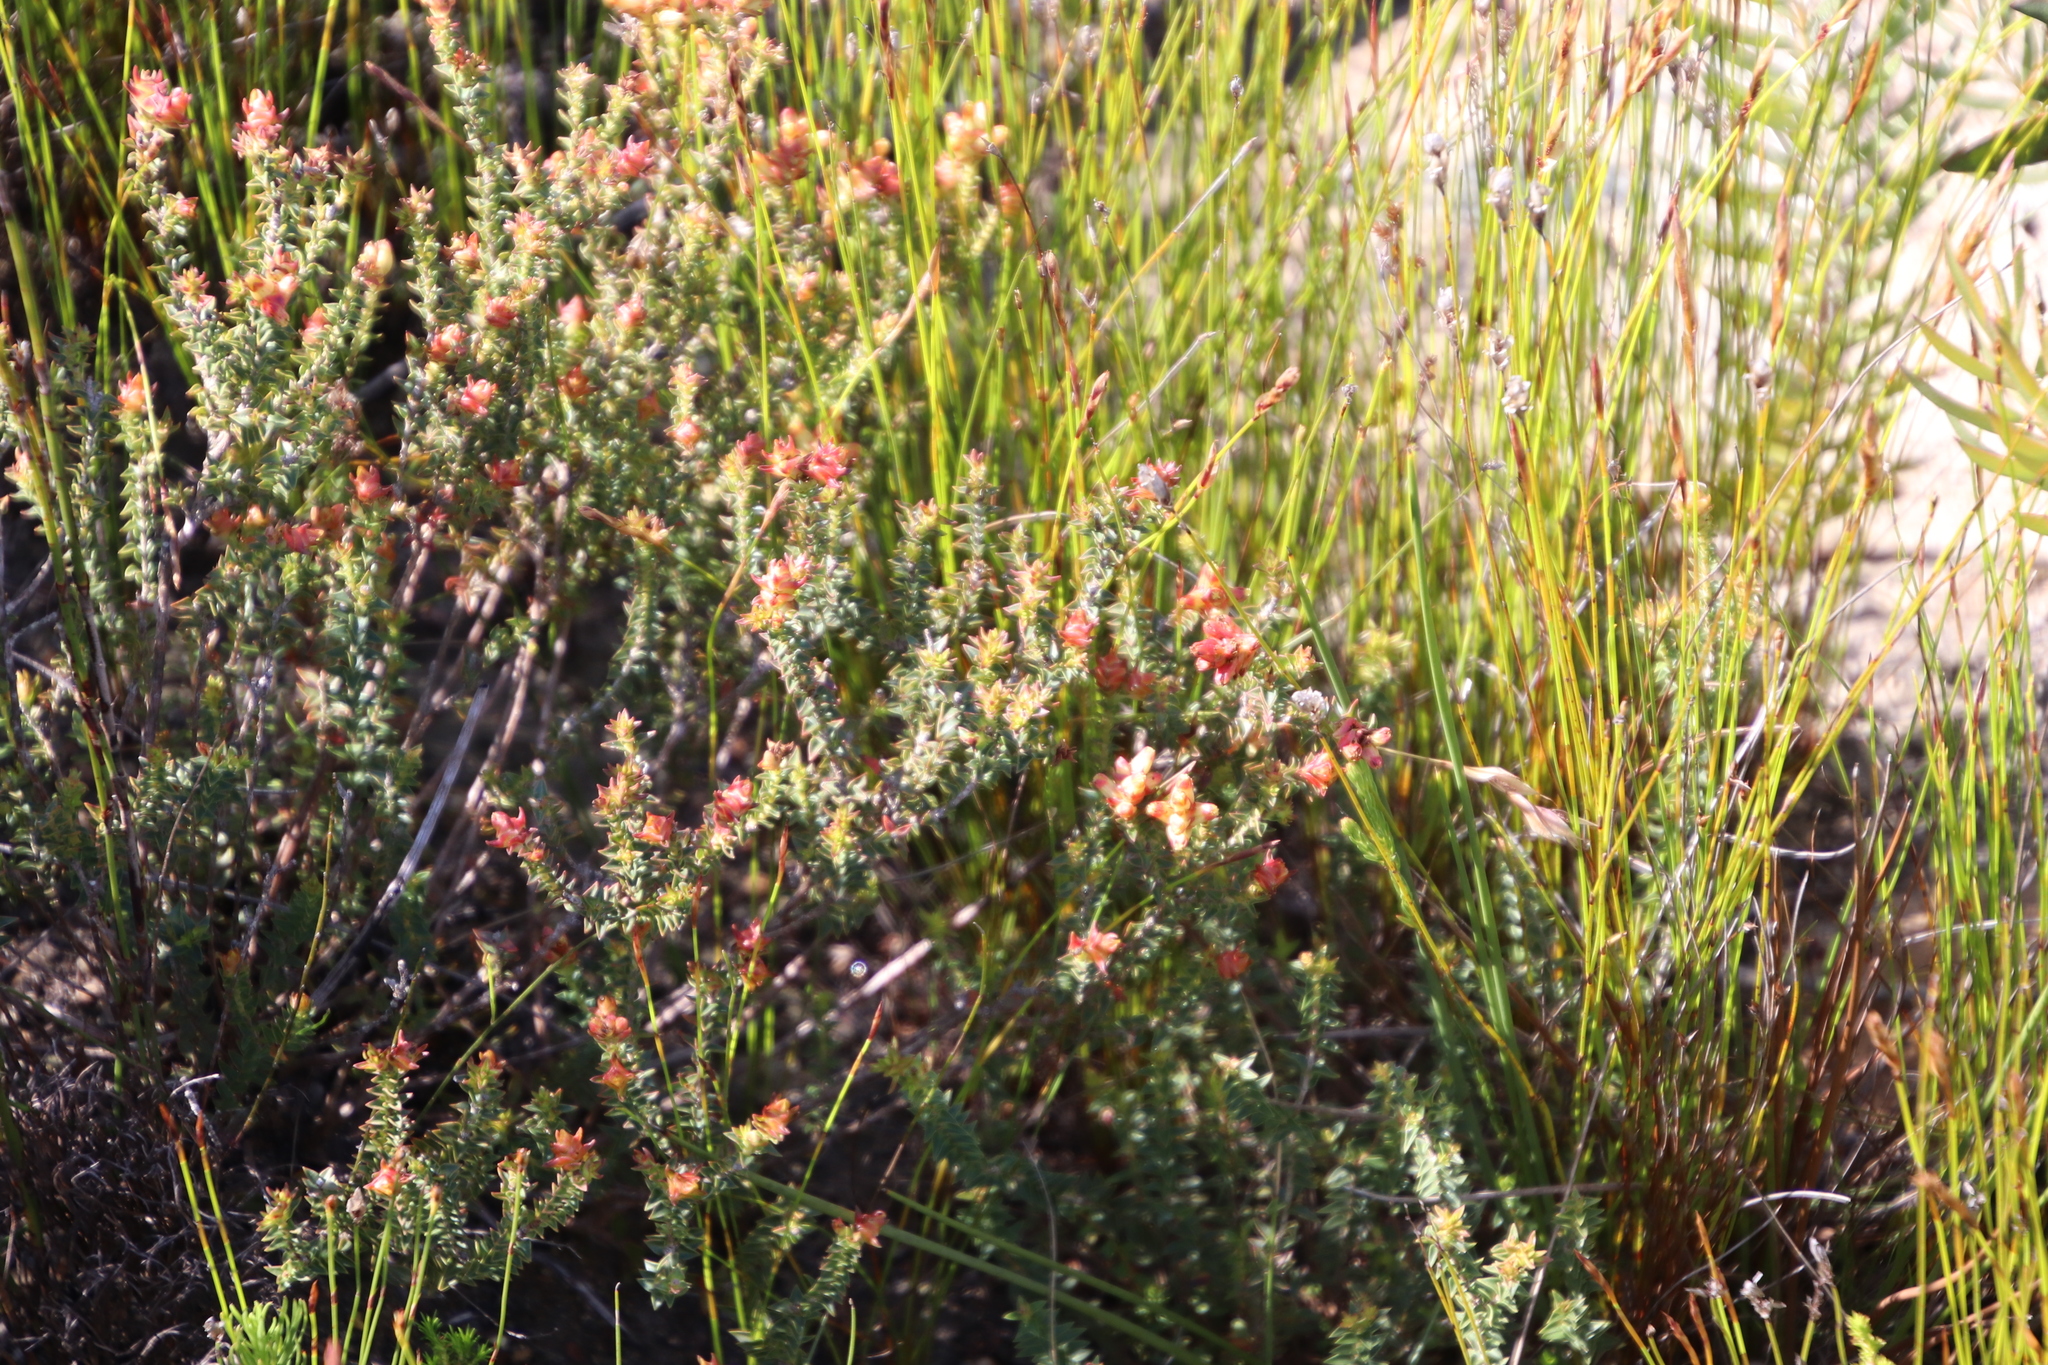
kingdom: Plantae
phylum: Tracheophyta
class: Magnoliopsida
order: Myrtales
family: Penaeaceae
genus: Penaea
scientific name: Penaea mucronata
